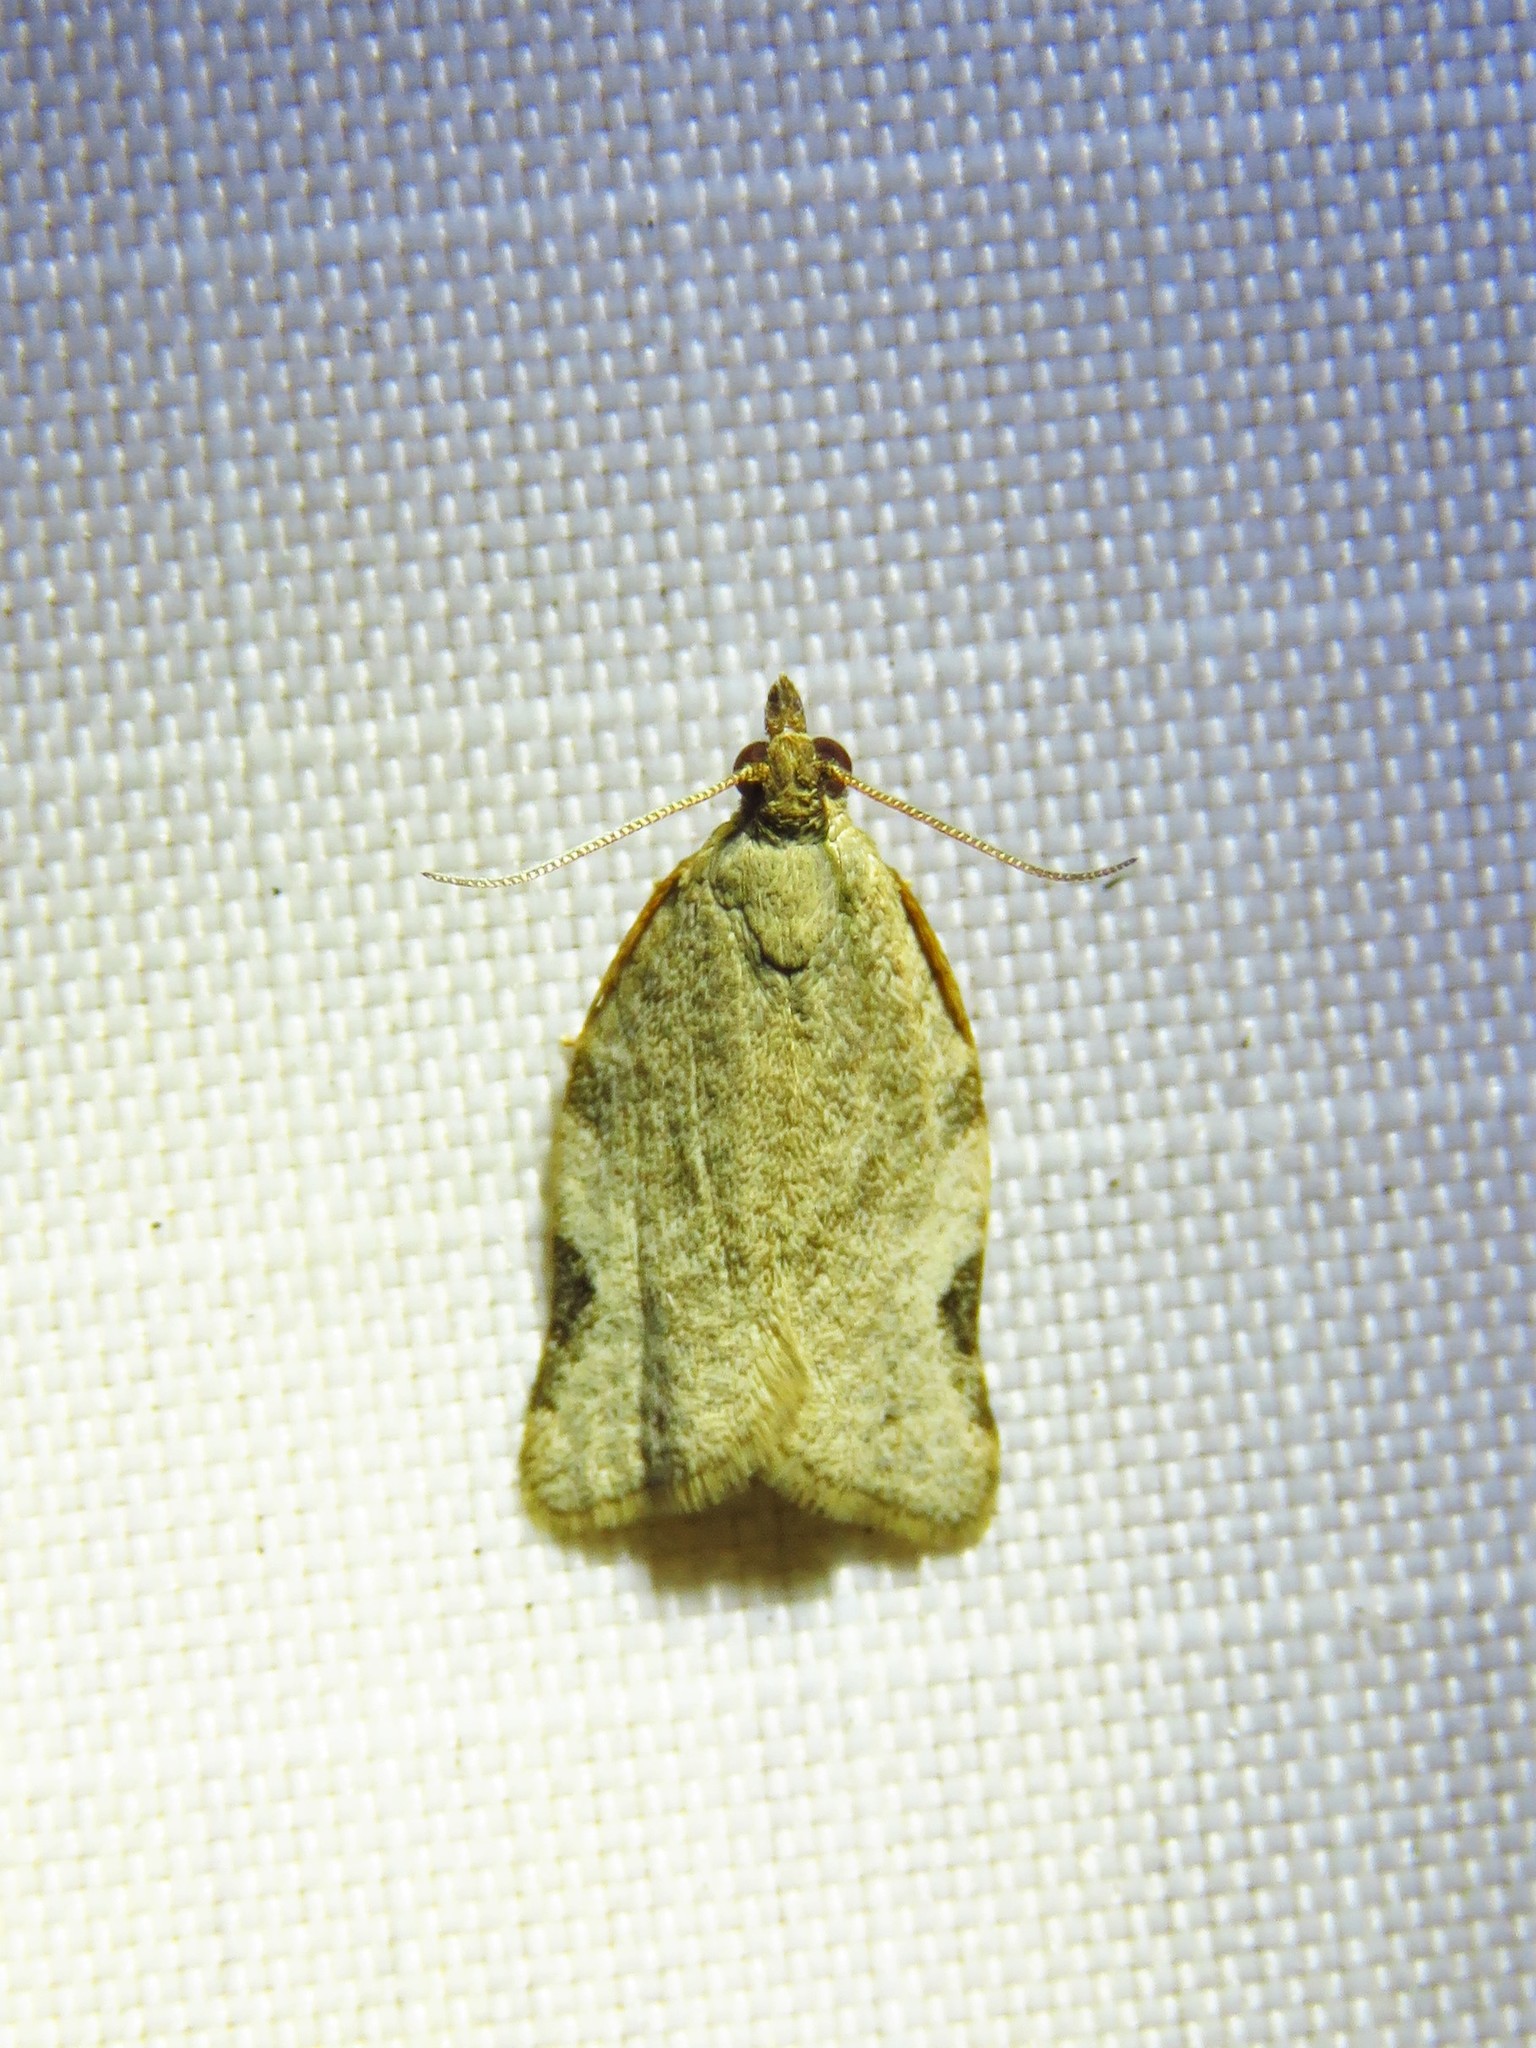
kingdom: Animalia
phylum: Arthropoda
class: Insecta
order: Lepidoptera
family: Tortricidae
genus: Clepsis
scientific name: Clepsis virescana
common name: Greenish apple moth
